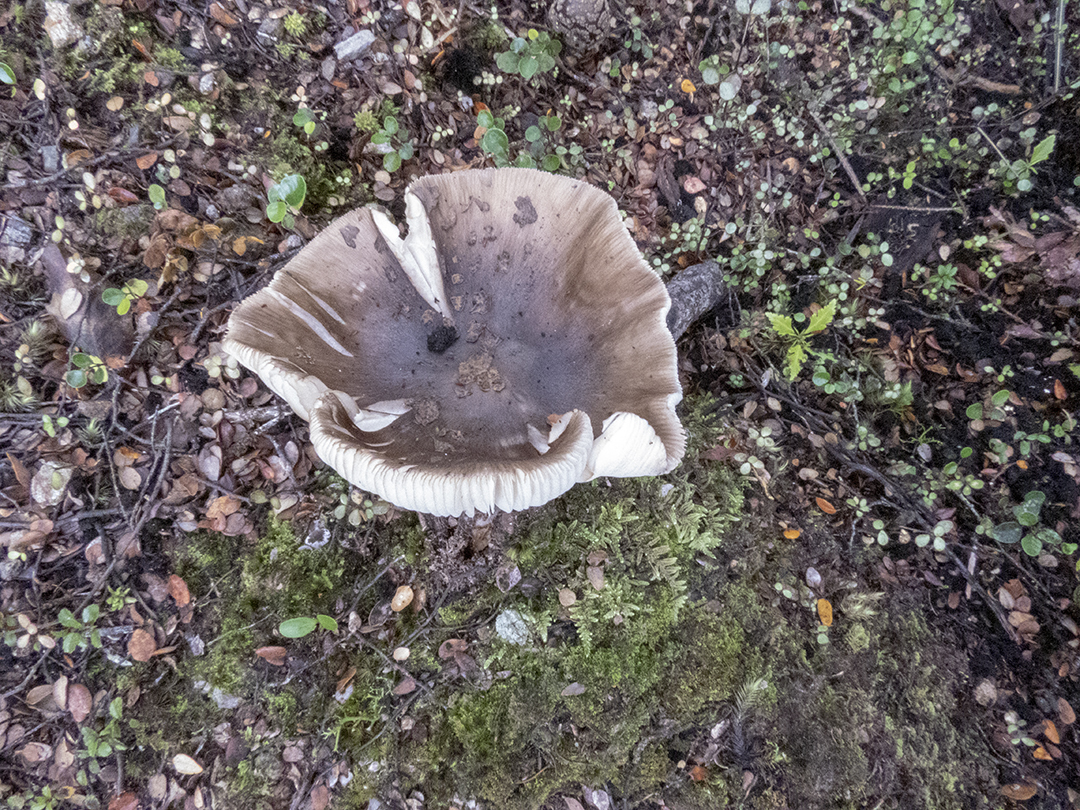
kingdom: Fungi
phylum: Basidiomycota
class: Agaricomycetes
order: Agaricales
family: Amanitaceae
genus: Amanita
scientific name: Amanita nothofagi
